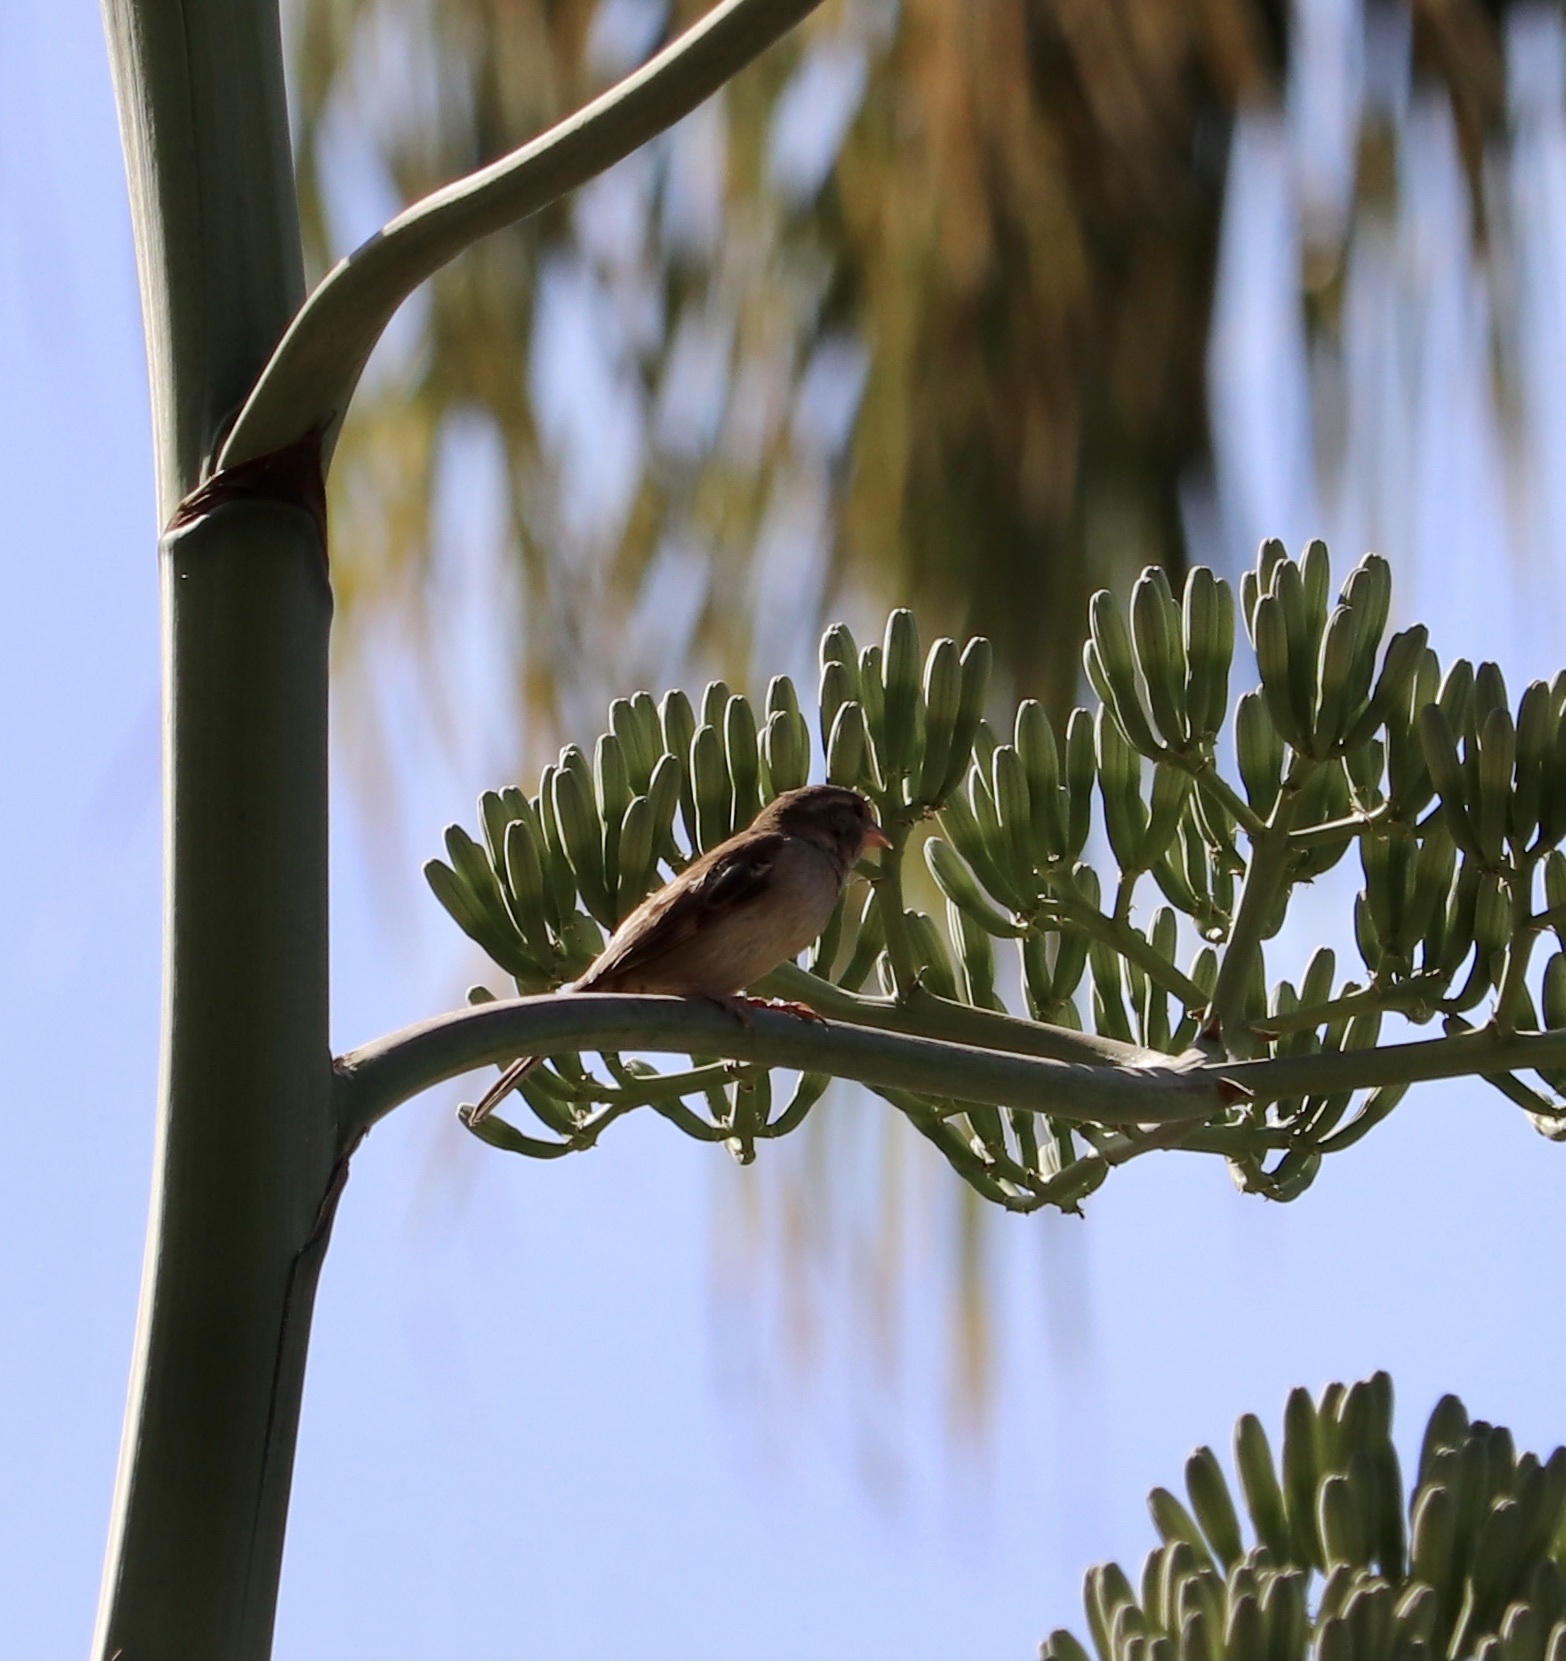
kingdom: Animalia
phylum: Chordata
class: Aves
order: Passeriformes
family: Passeridae
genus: Passer
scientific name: Passer domesticus
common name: House sparrow
